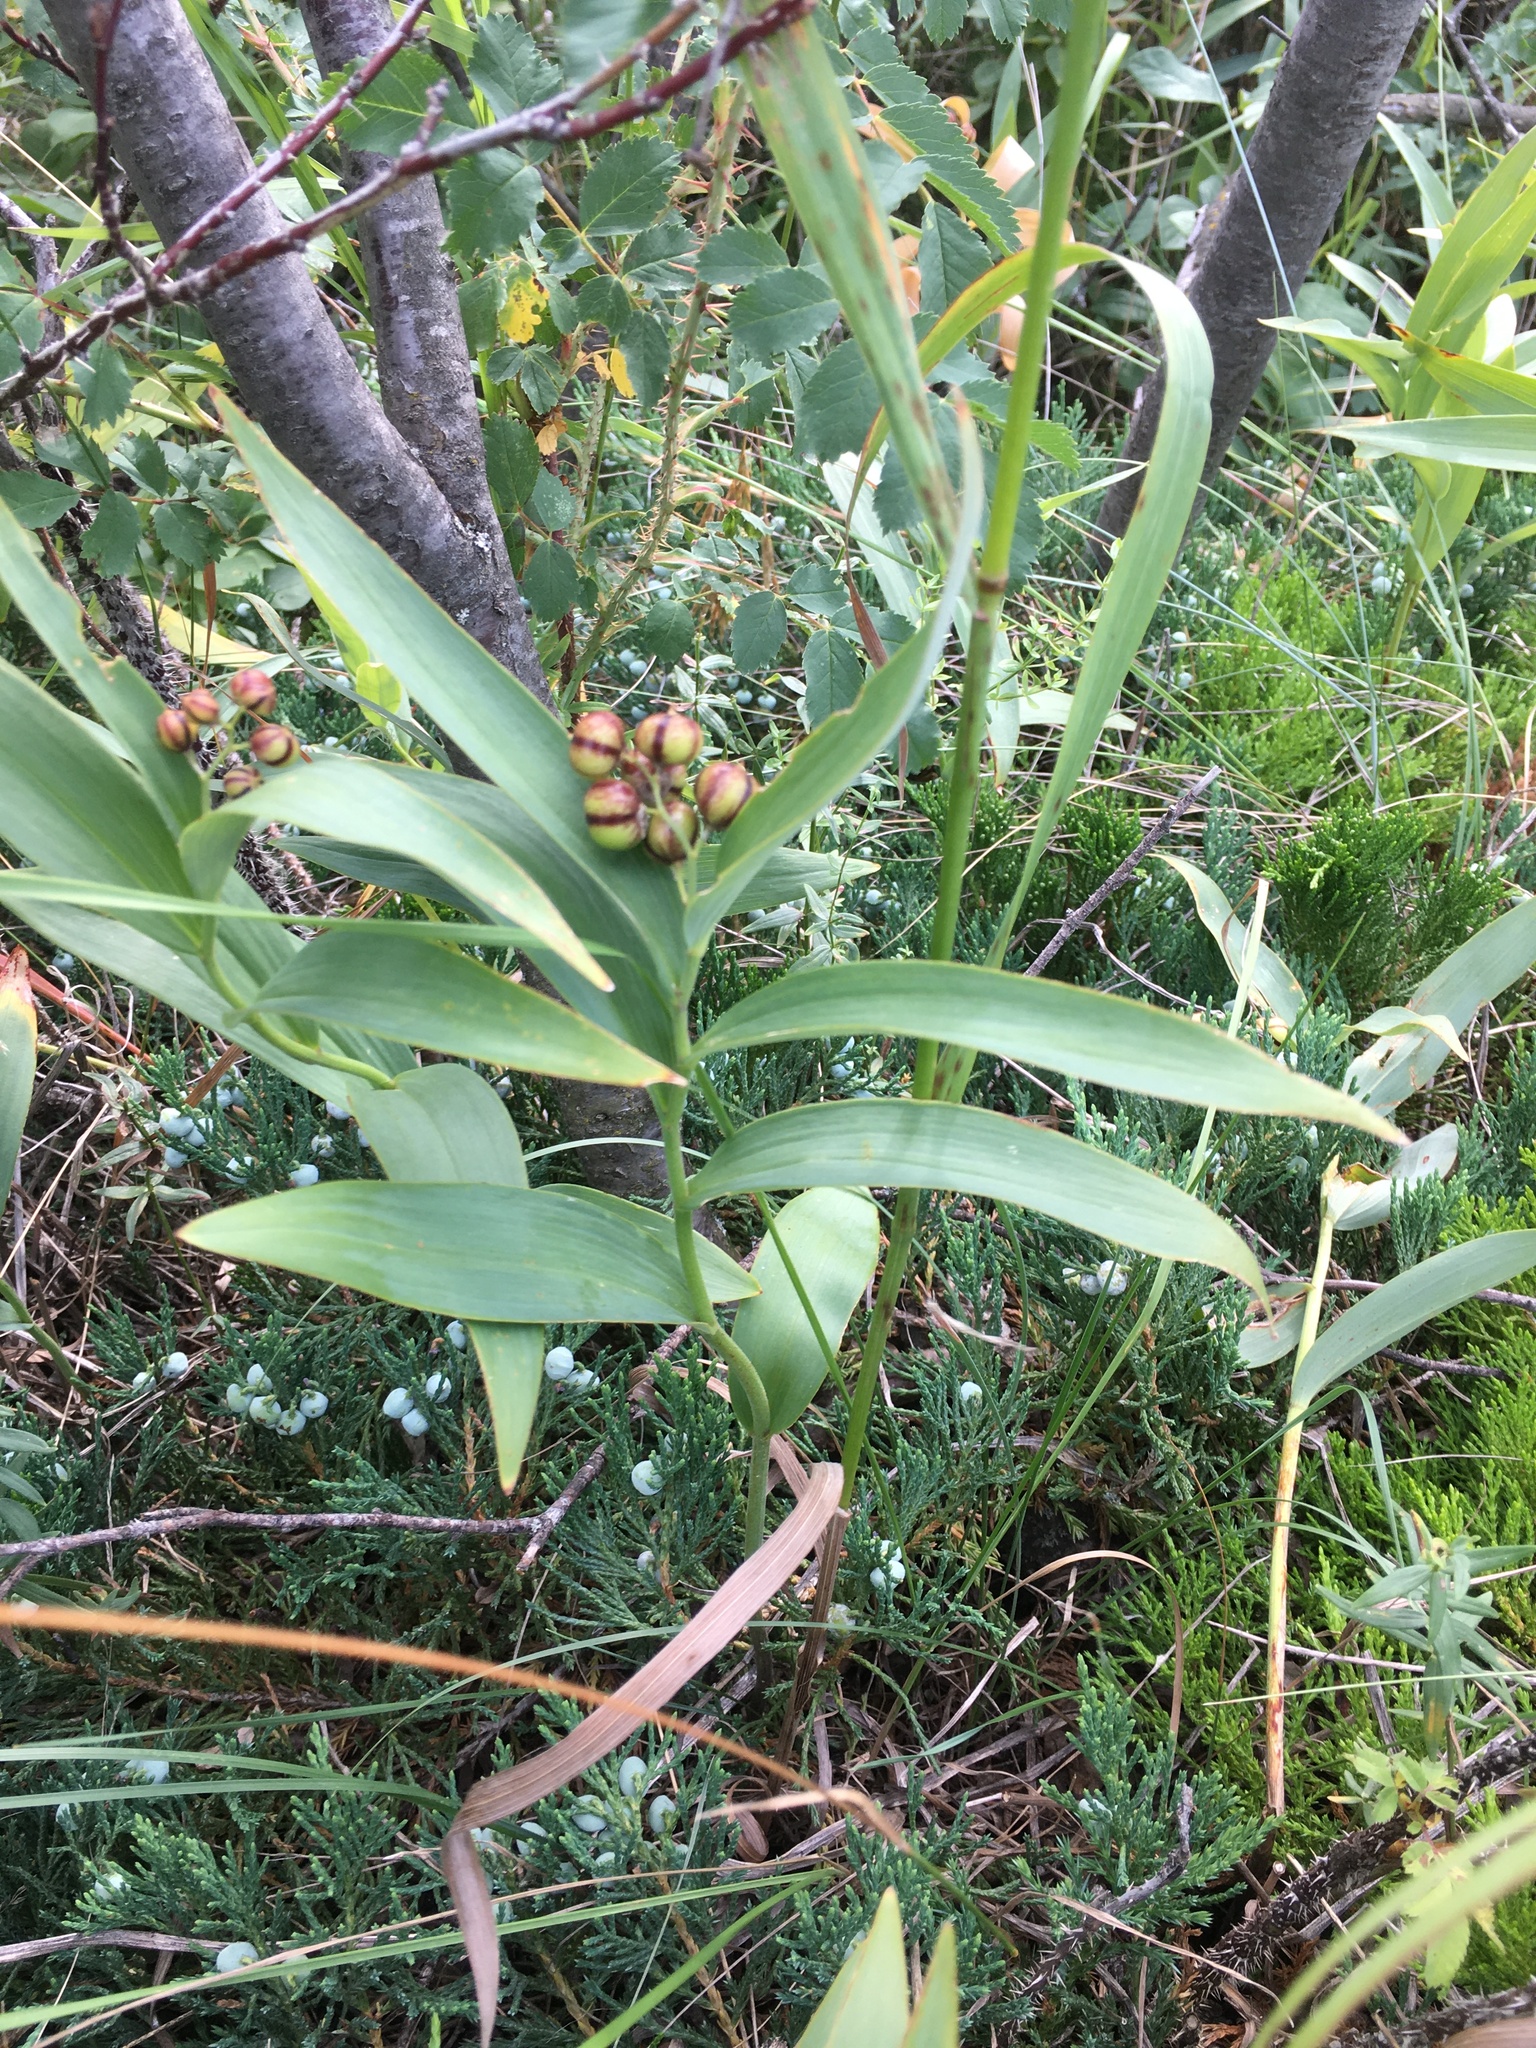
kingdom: Plantae
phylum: Tracheophyta
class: Liliopsida
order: Asparagales
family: Asparagaceae
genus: Maianthemum
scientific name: Maianthemum stellatum
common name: Little false solomon's seal
